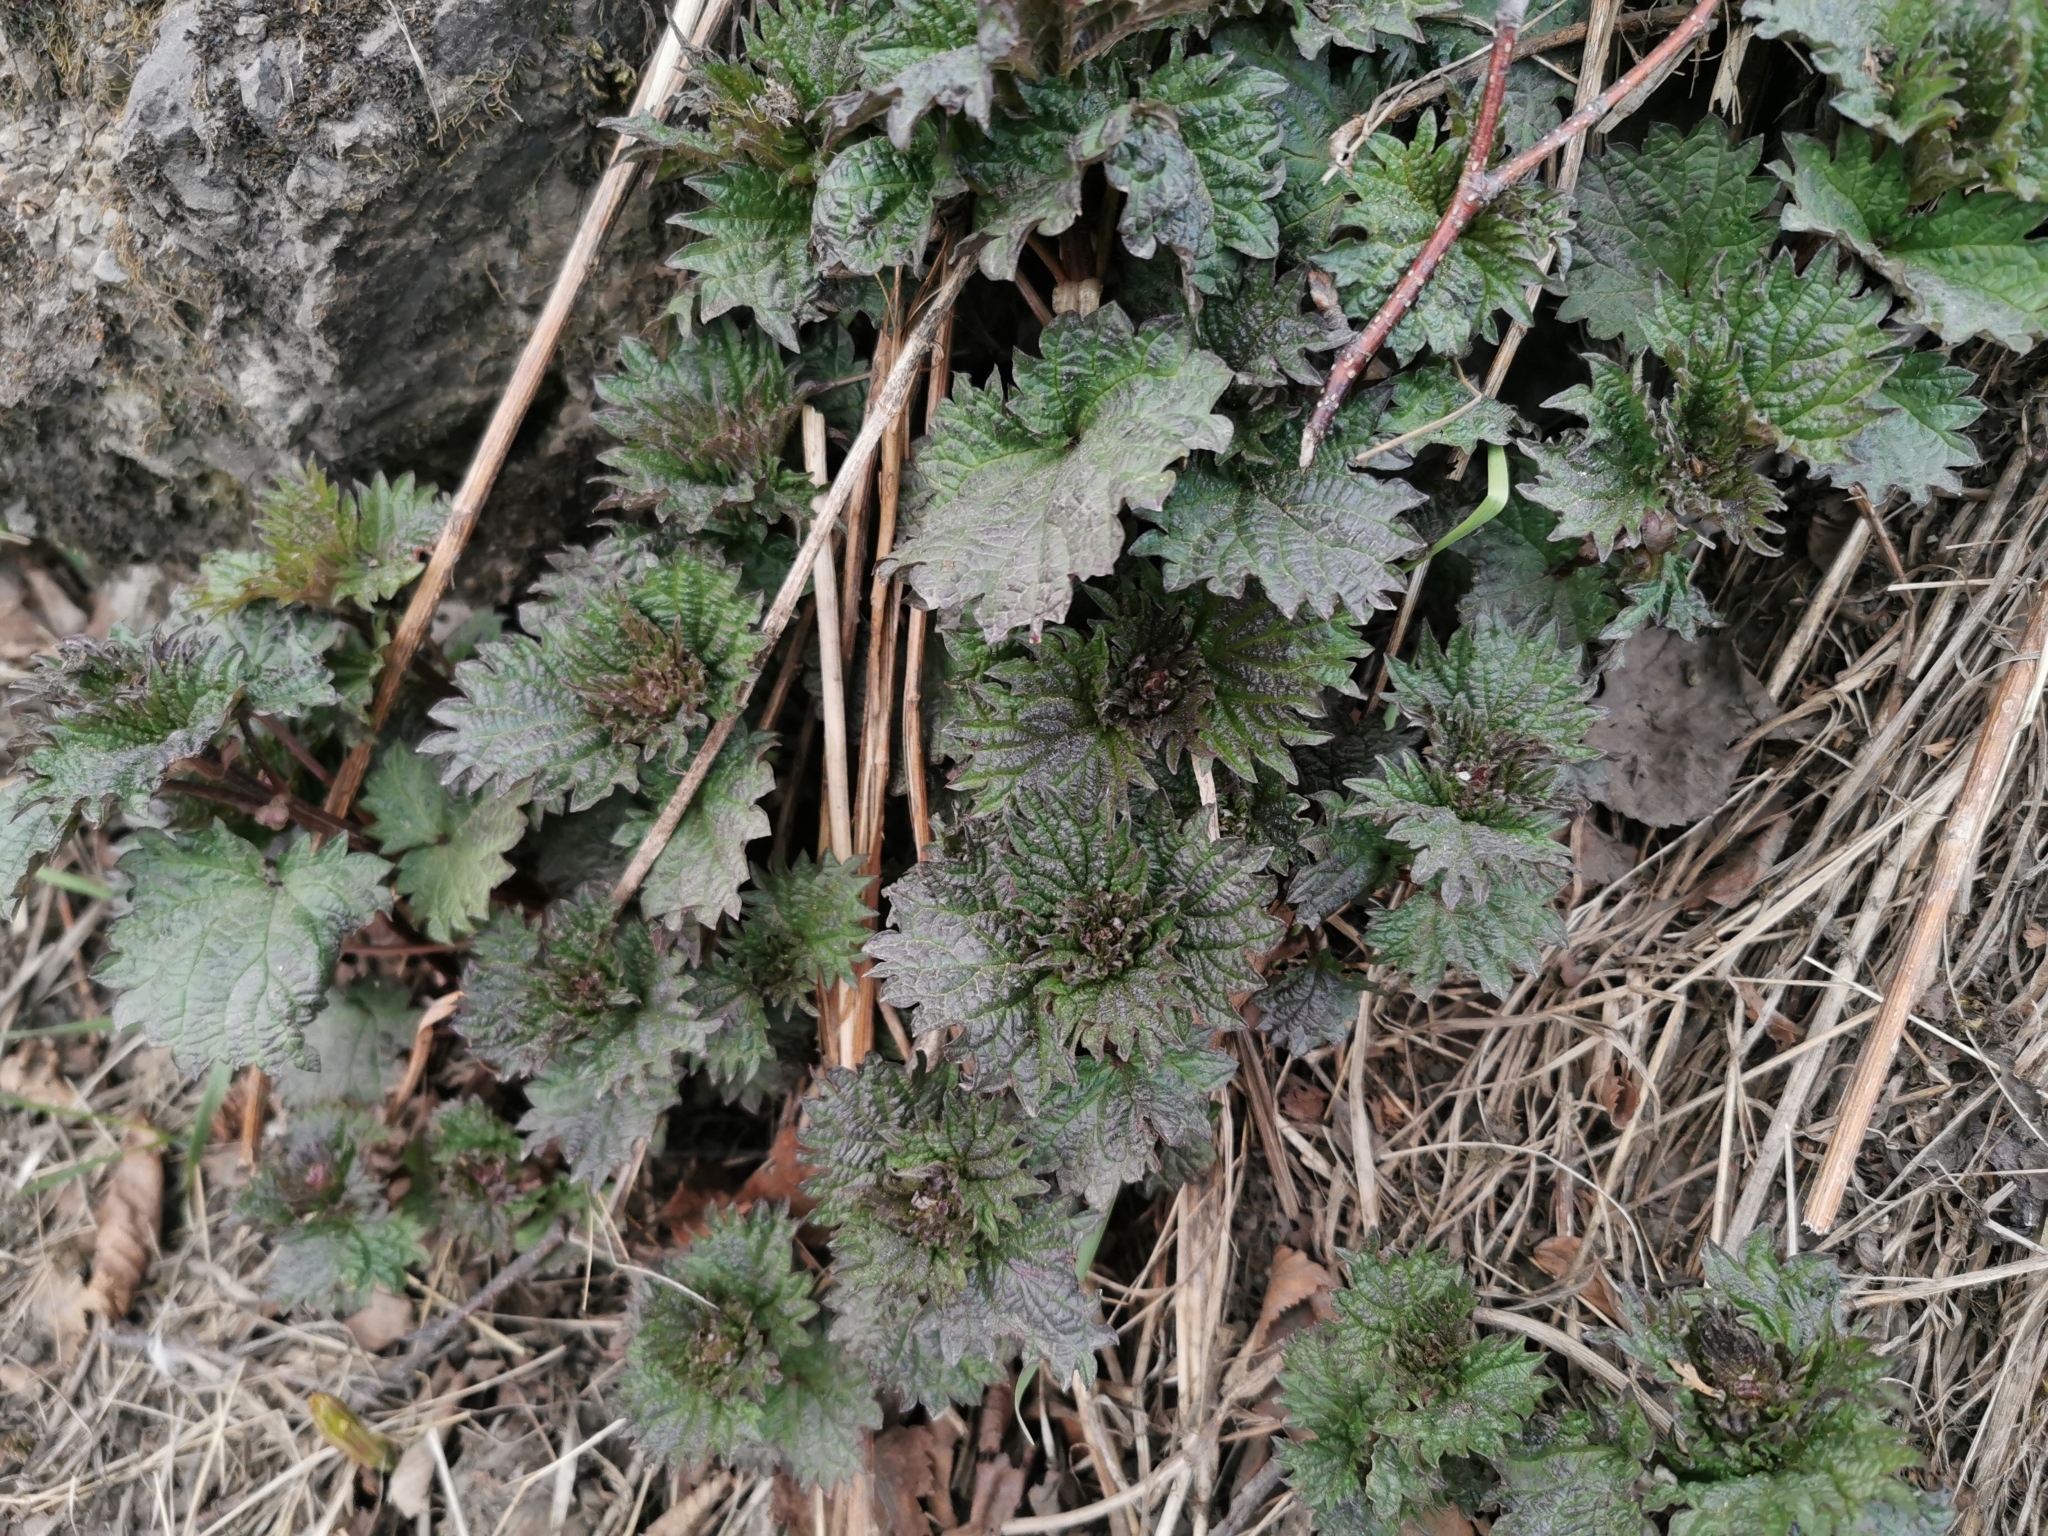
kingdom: Plantae
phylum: Tracheophyta
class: Magnoliopsida
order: Rosales
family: Urticaceae
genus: Urtica
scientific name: Urtica platyphylla
